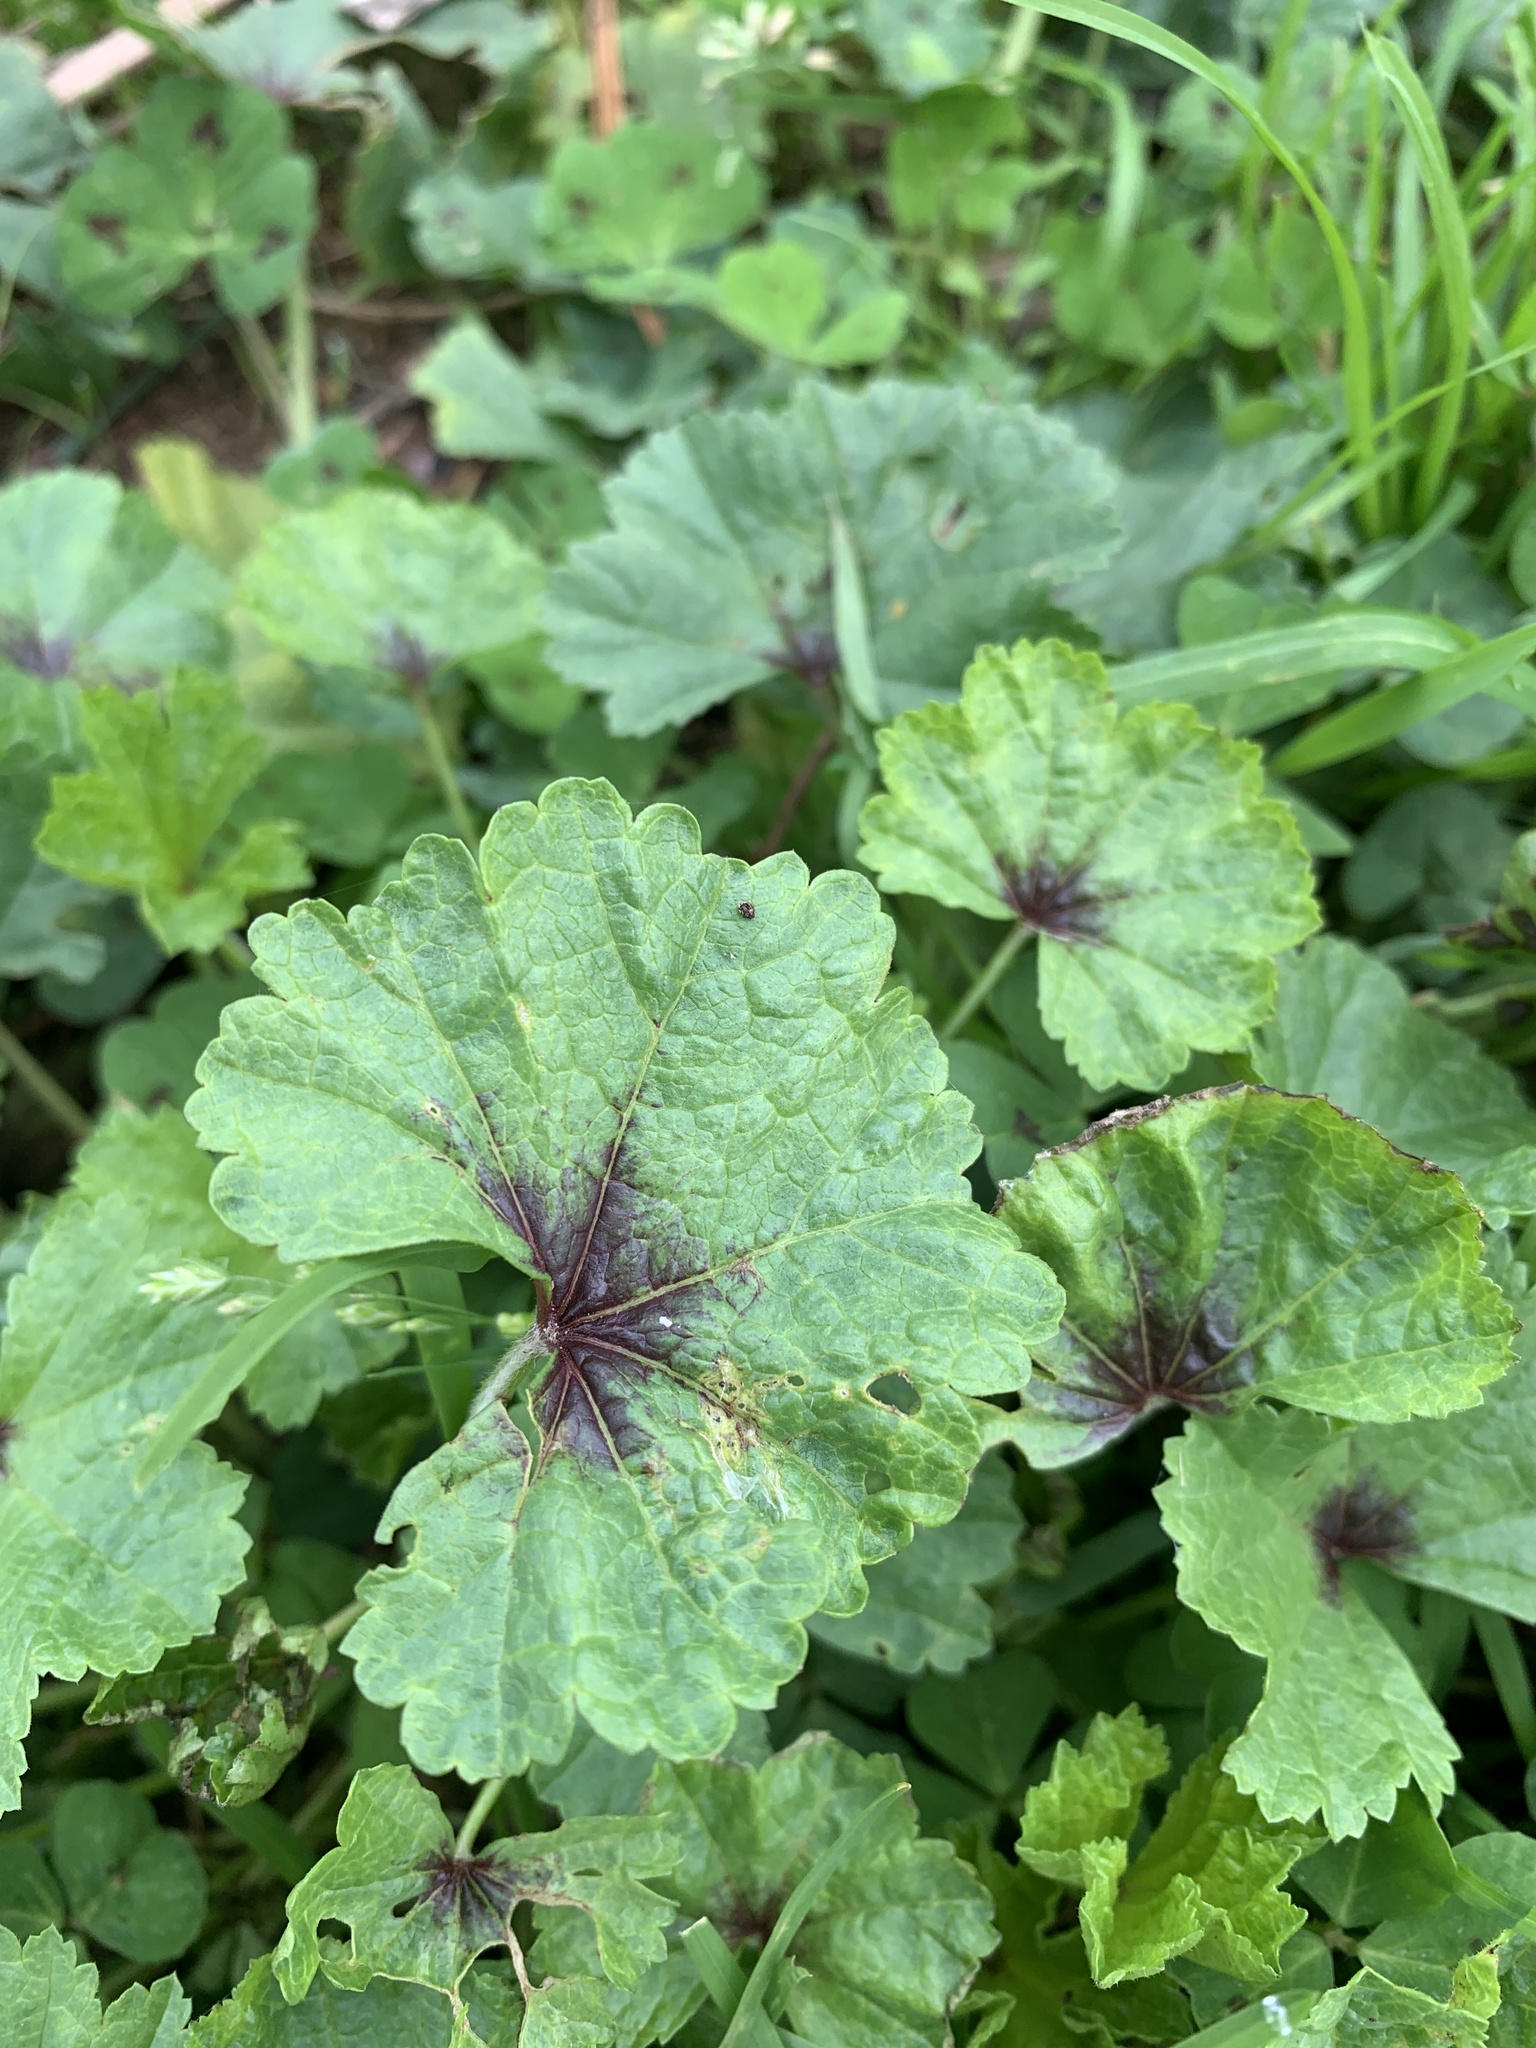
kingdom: Plantae
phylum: Tracheophyta
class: Magnoliopsida
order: Malvales
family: Malvaceae
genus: Malva
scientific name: Malva sylvestris
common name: Common mallow
